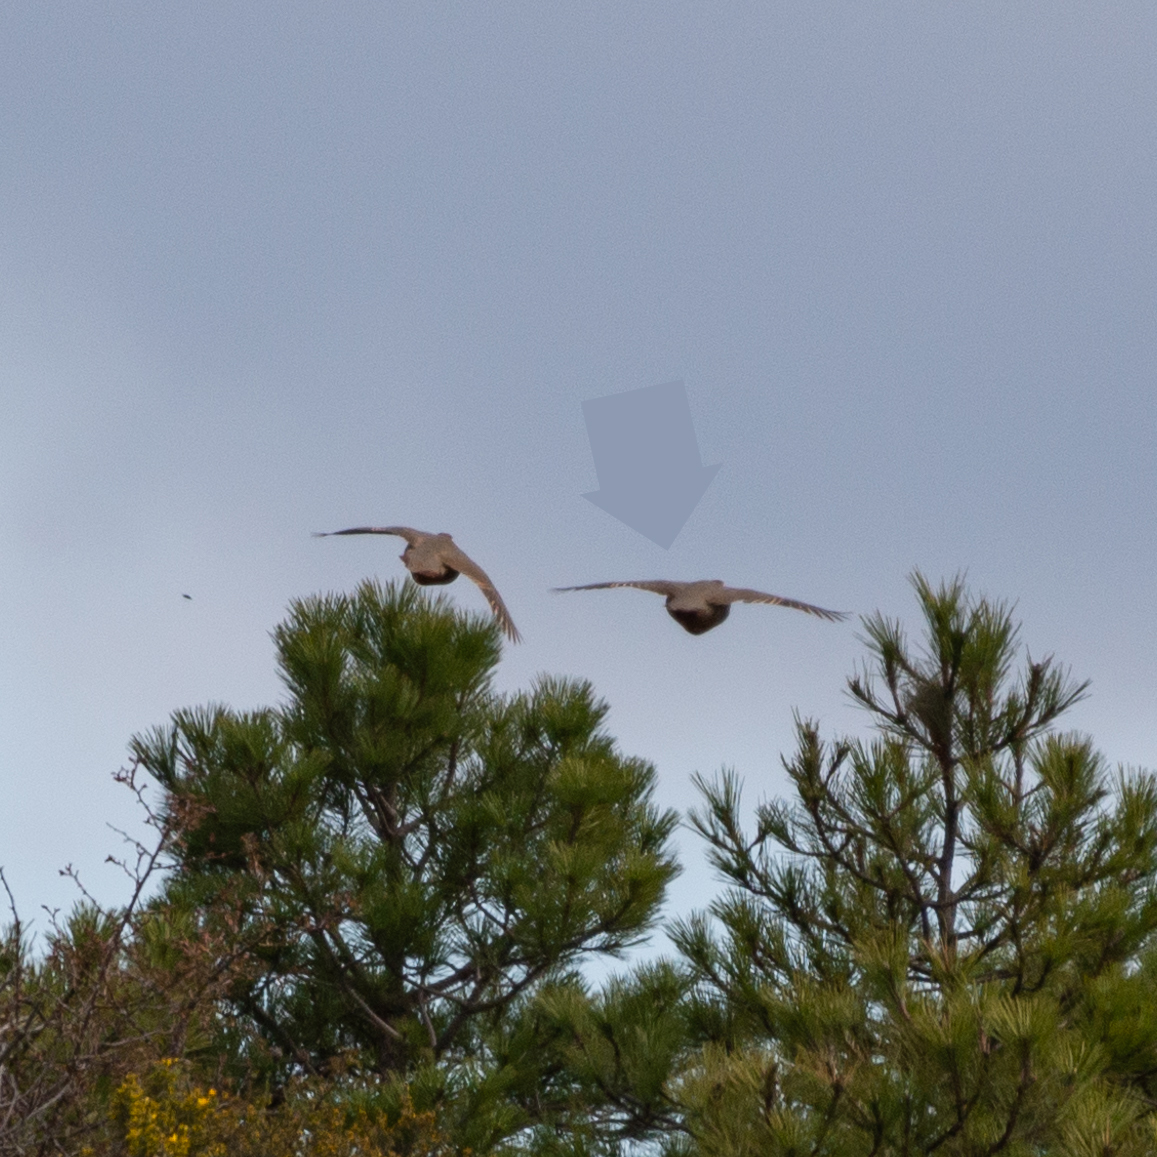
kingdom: Animalia
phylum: Chordata
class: Aves
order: Galliformes
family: Phasianidae
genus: Alectoris
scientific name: Alectoris rufa
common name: Red-legged partridge
